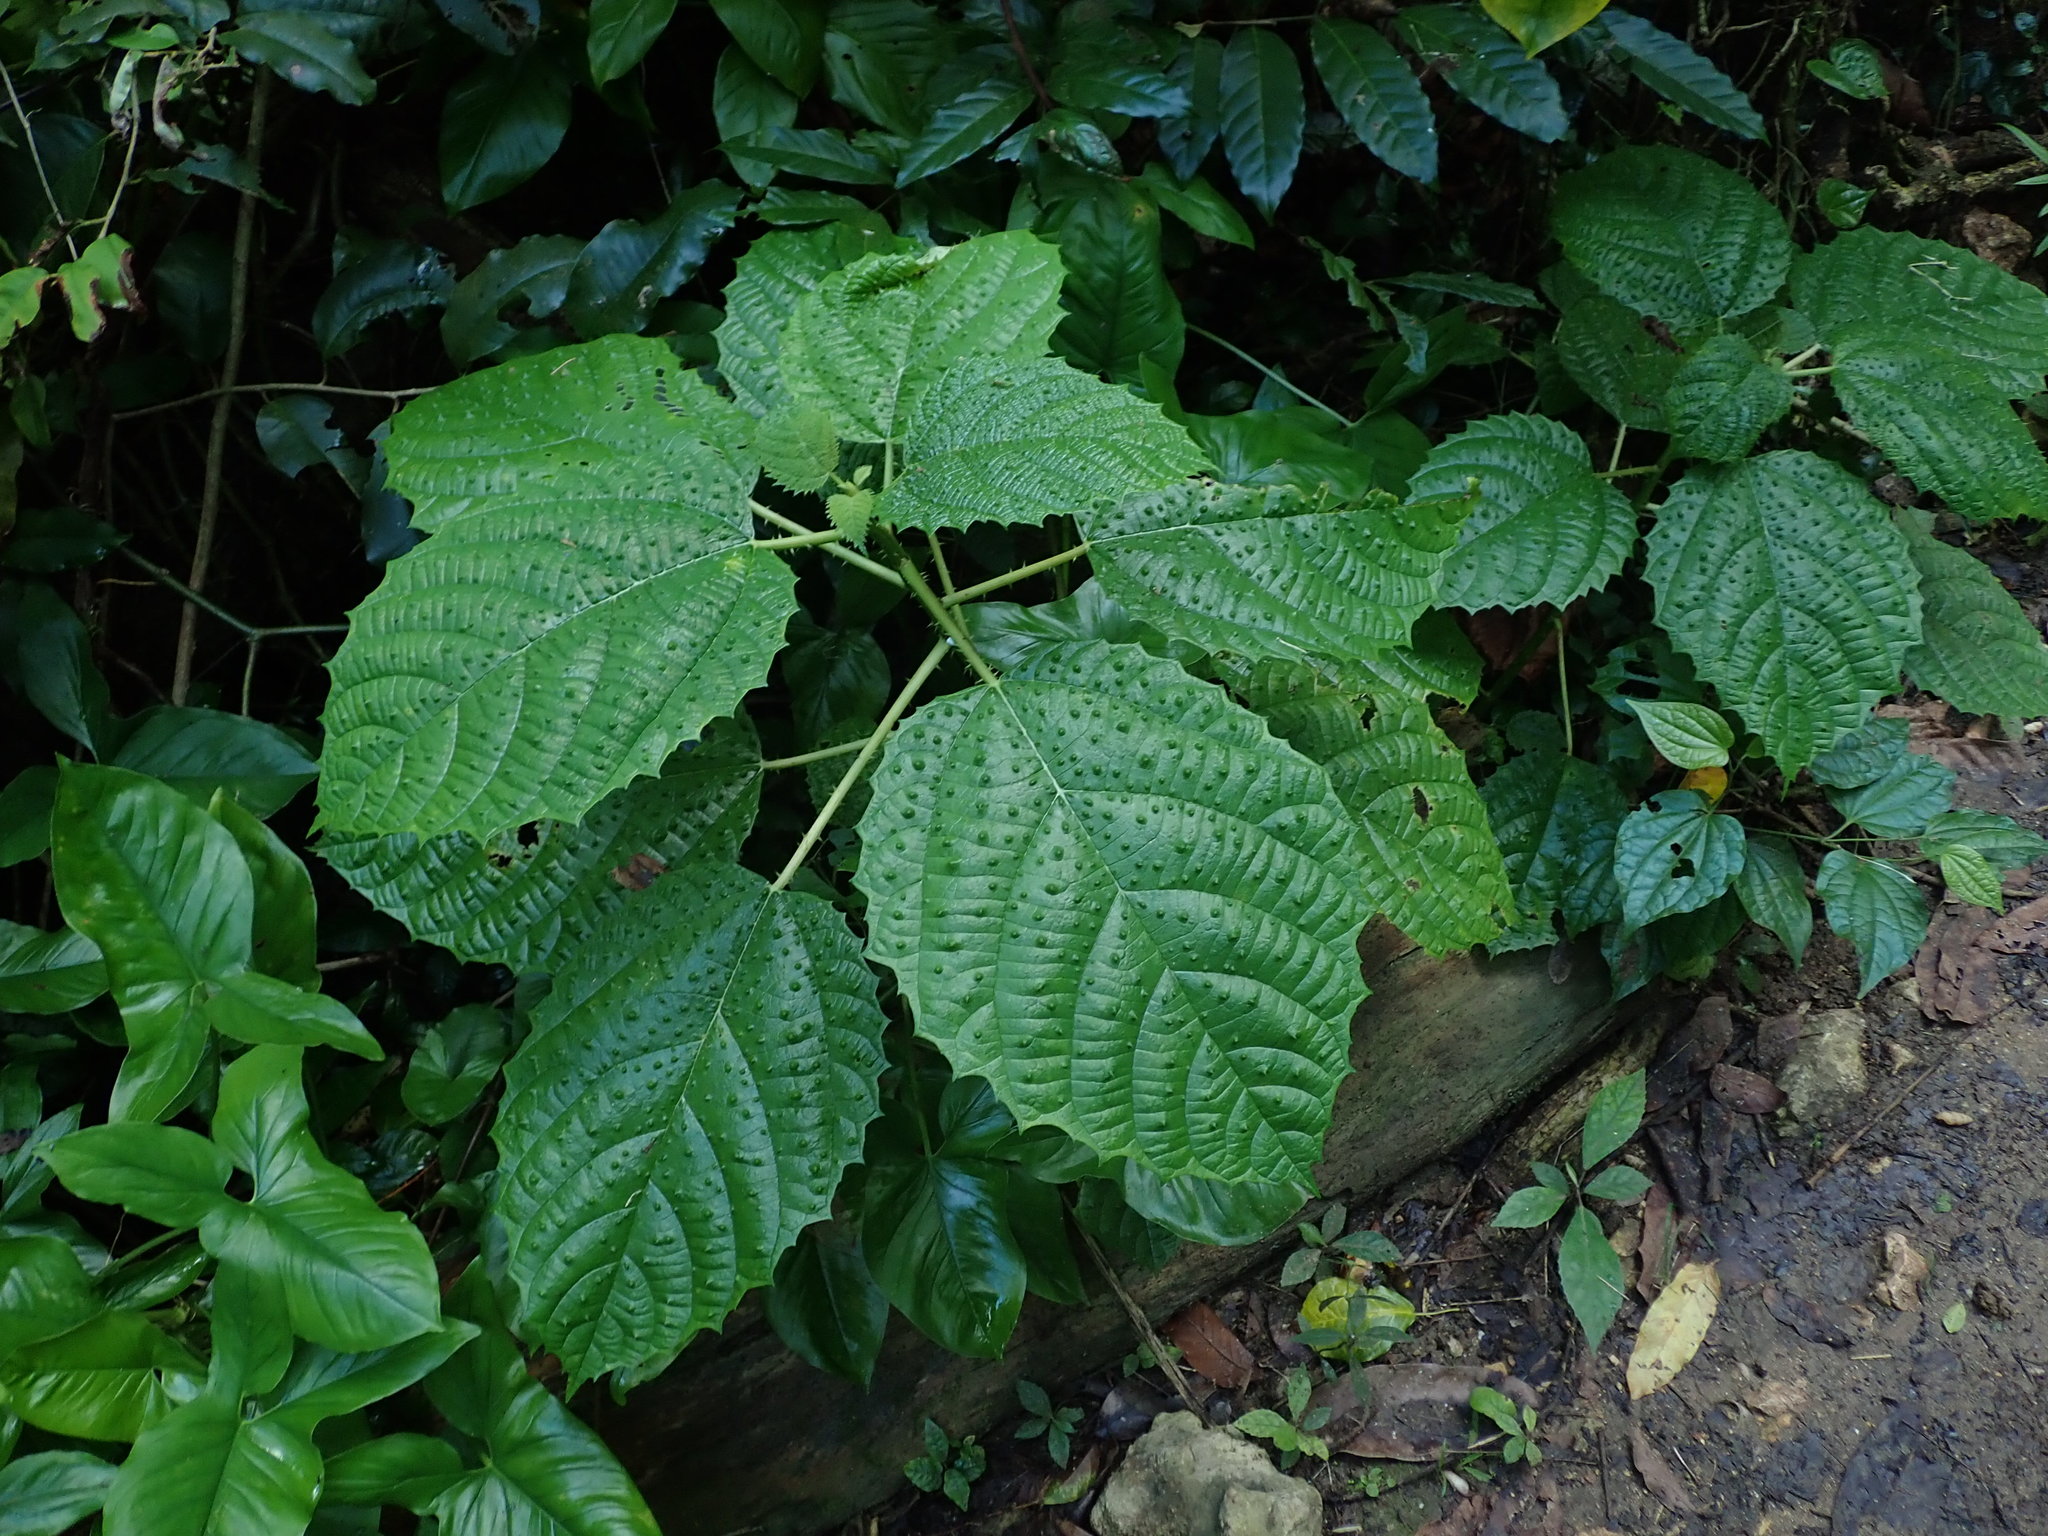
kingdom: Plantae
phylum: Tracheophyta
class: Magnoliopsida
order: Rosales
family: Urticaceae
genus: Urera
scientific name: Urera baccifera
